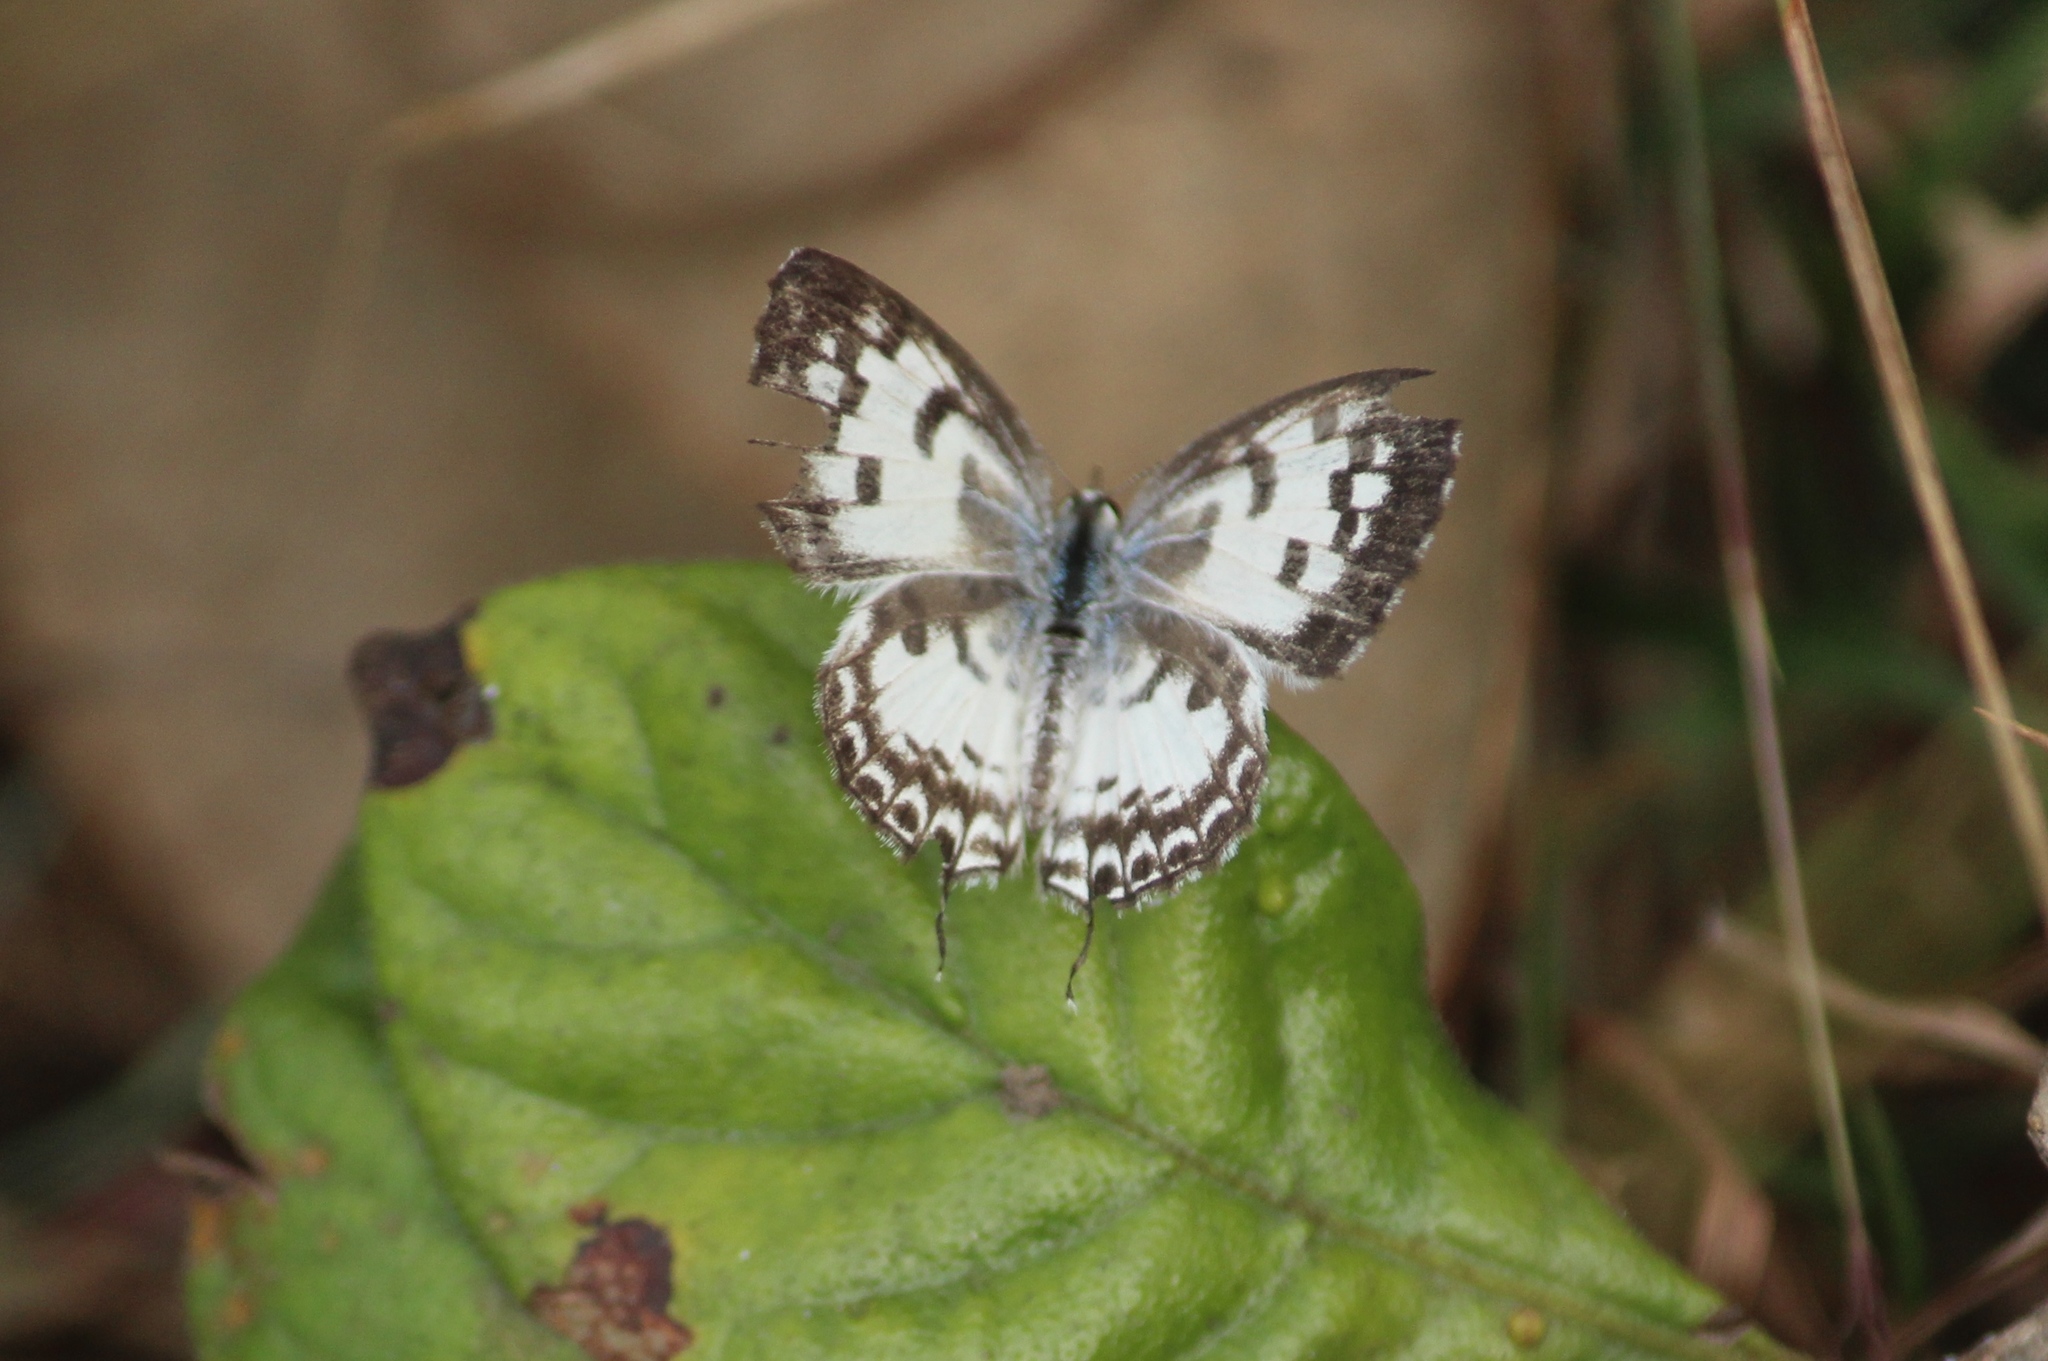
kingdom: Animalia
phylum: Arthropoda
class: Insecta
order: Lepidoptera
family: Lycaenidae
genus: Castalius
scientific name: Castalius rosimon
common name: Common pierrot
